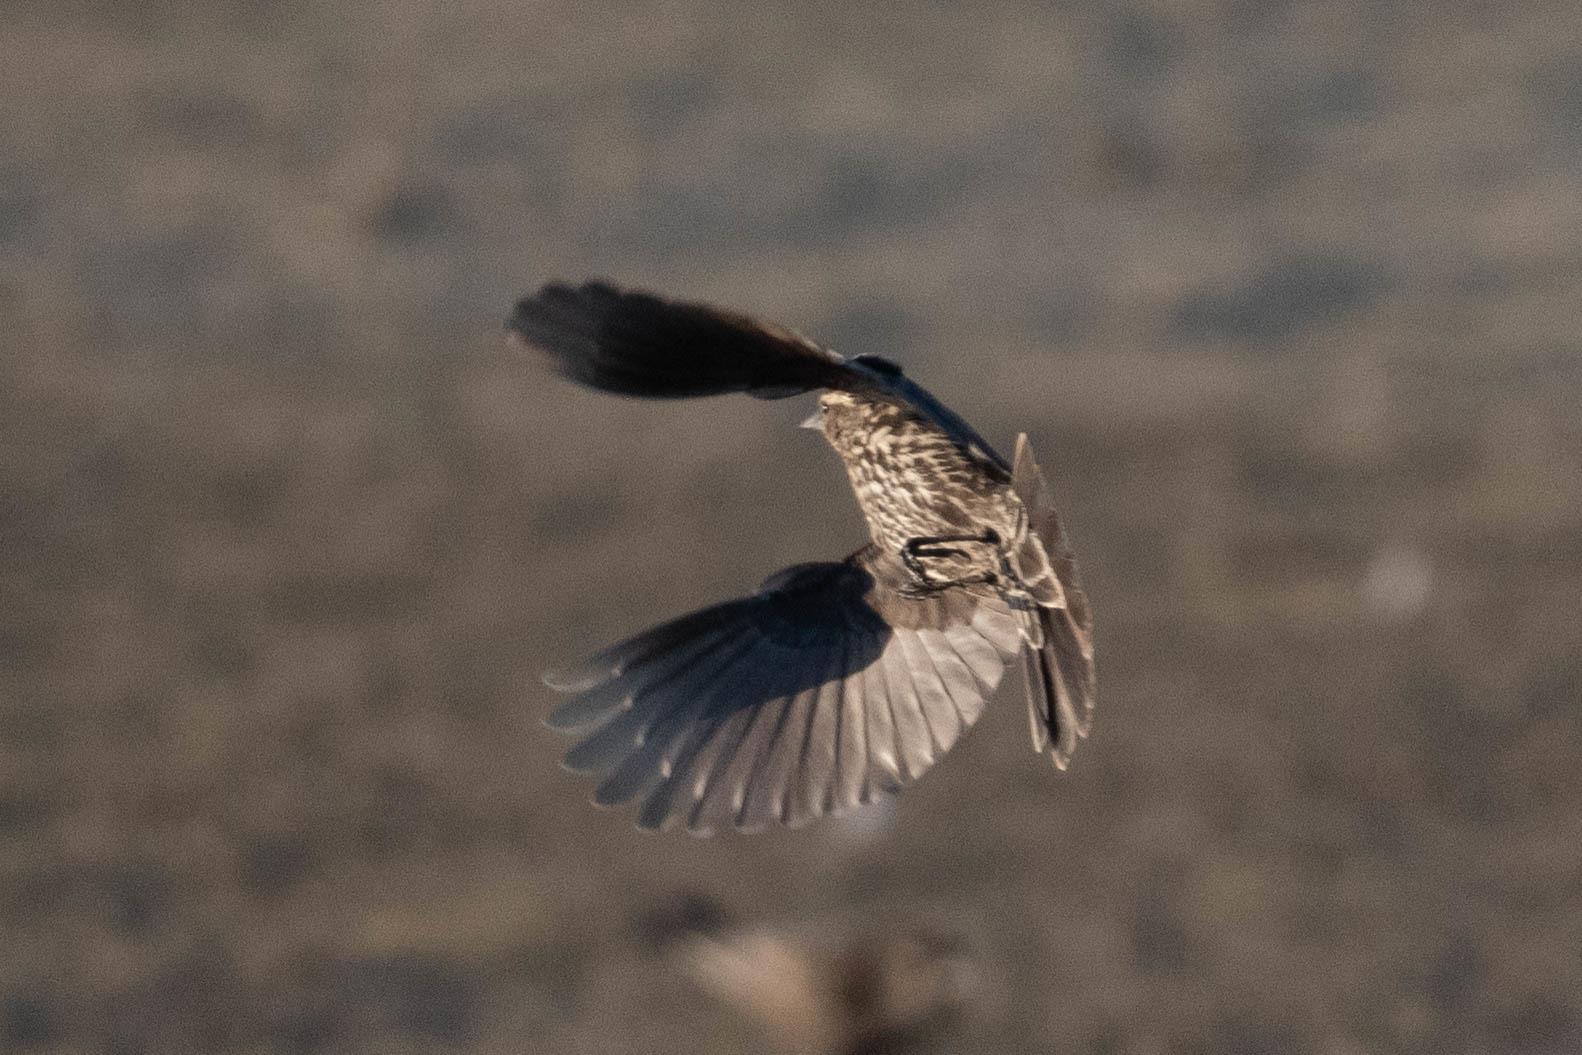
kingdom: Animalia
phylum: Chordata
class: Aves
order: Passeriformes
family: Icteridae
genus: Agelaius
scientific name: Agelaius phoeniceus
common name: Red-winged blackbird
